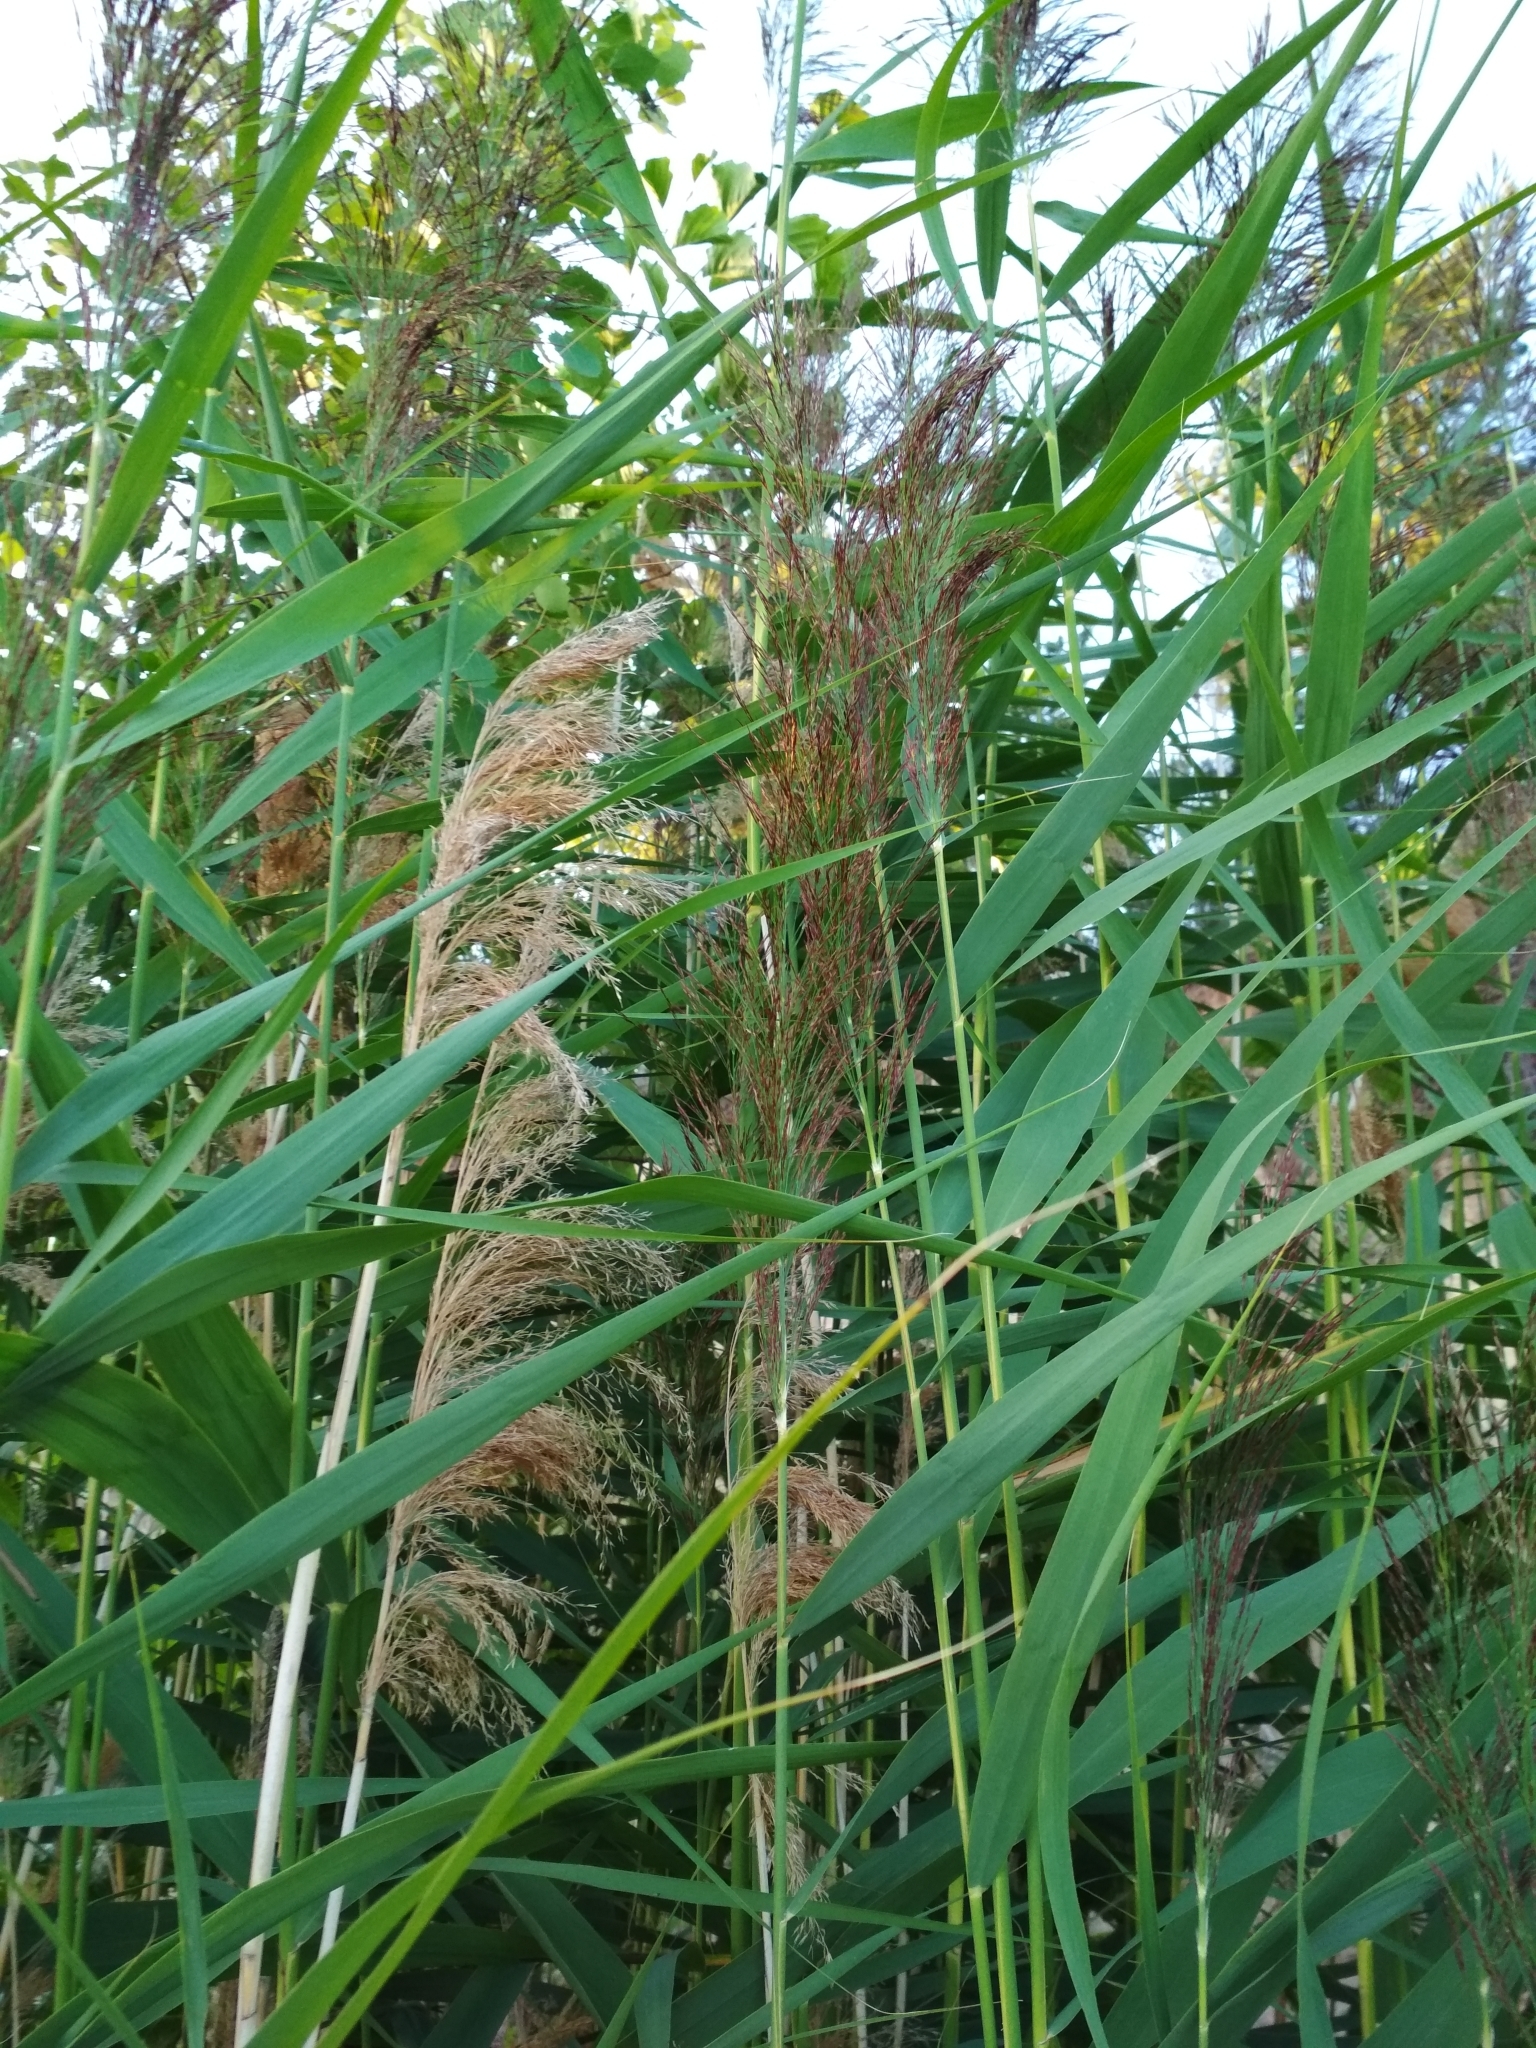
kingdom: Plantae
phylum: Tracheophyta
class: Liliopsida
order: Poales
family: Poaceae
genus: Phragmites
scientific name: Phragmites australis
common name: Common reed
